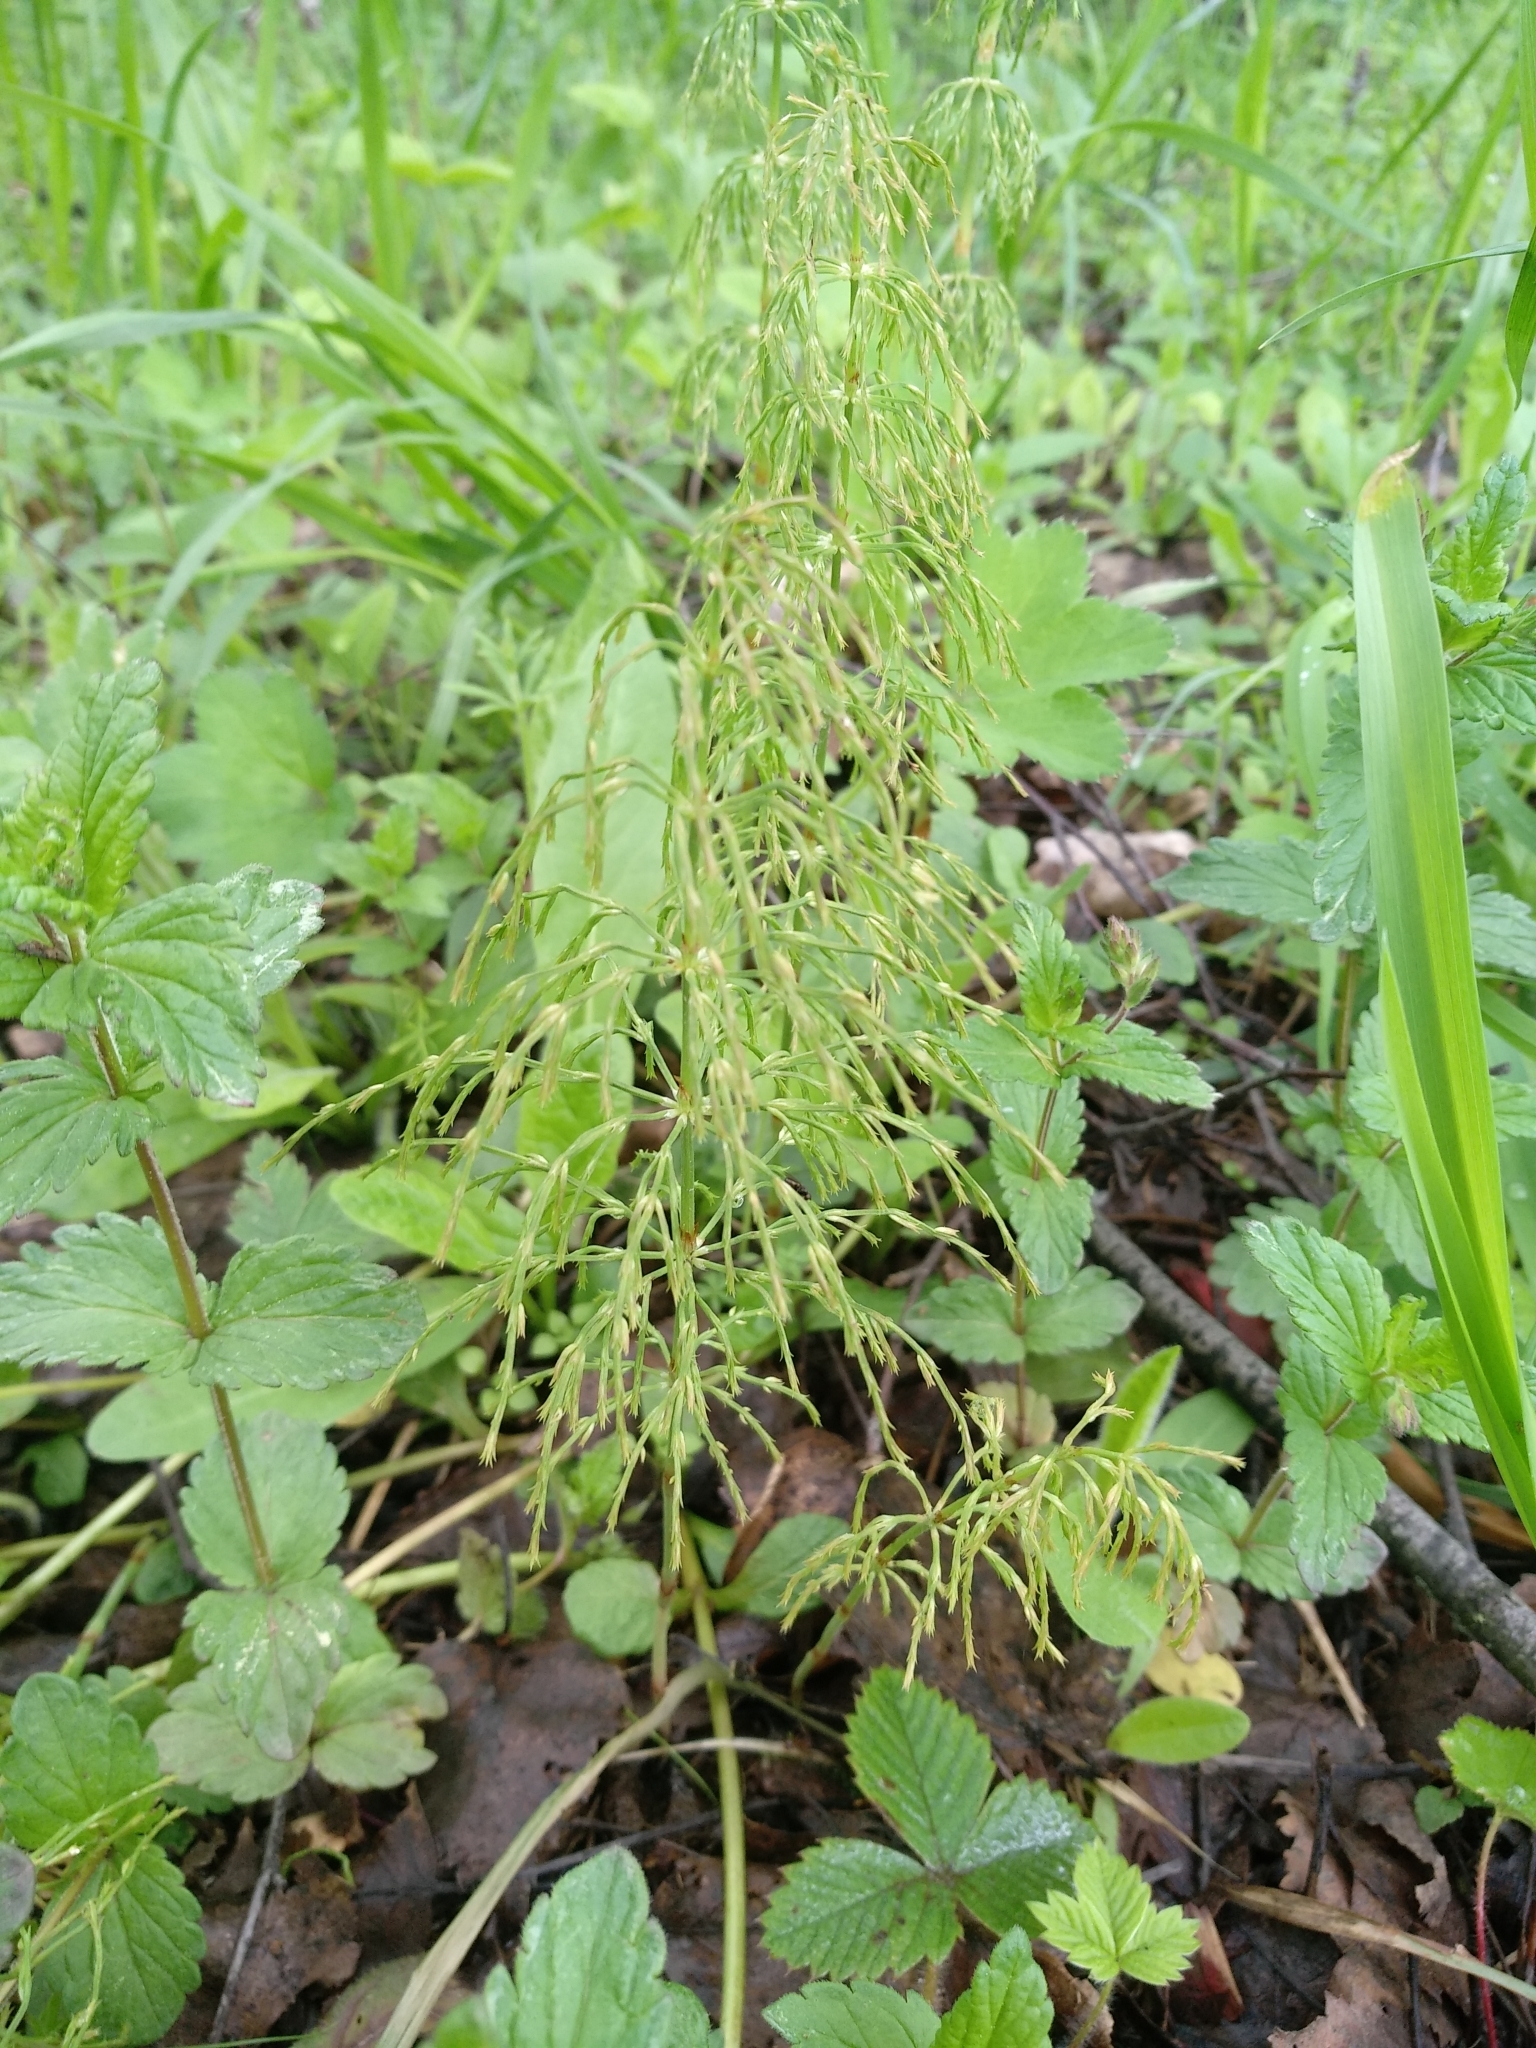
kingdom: Plantae
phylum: Tracheophyta
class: Polypodiopsida
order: Equisetales
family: Equisetaceae
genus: Equisetum
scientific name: Equisetum sylvaticum
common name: Wood horsetail
